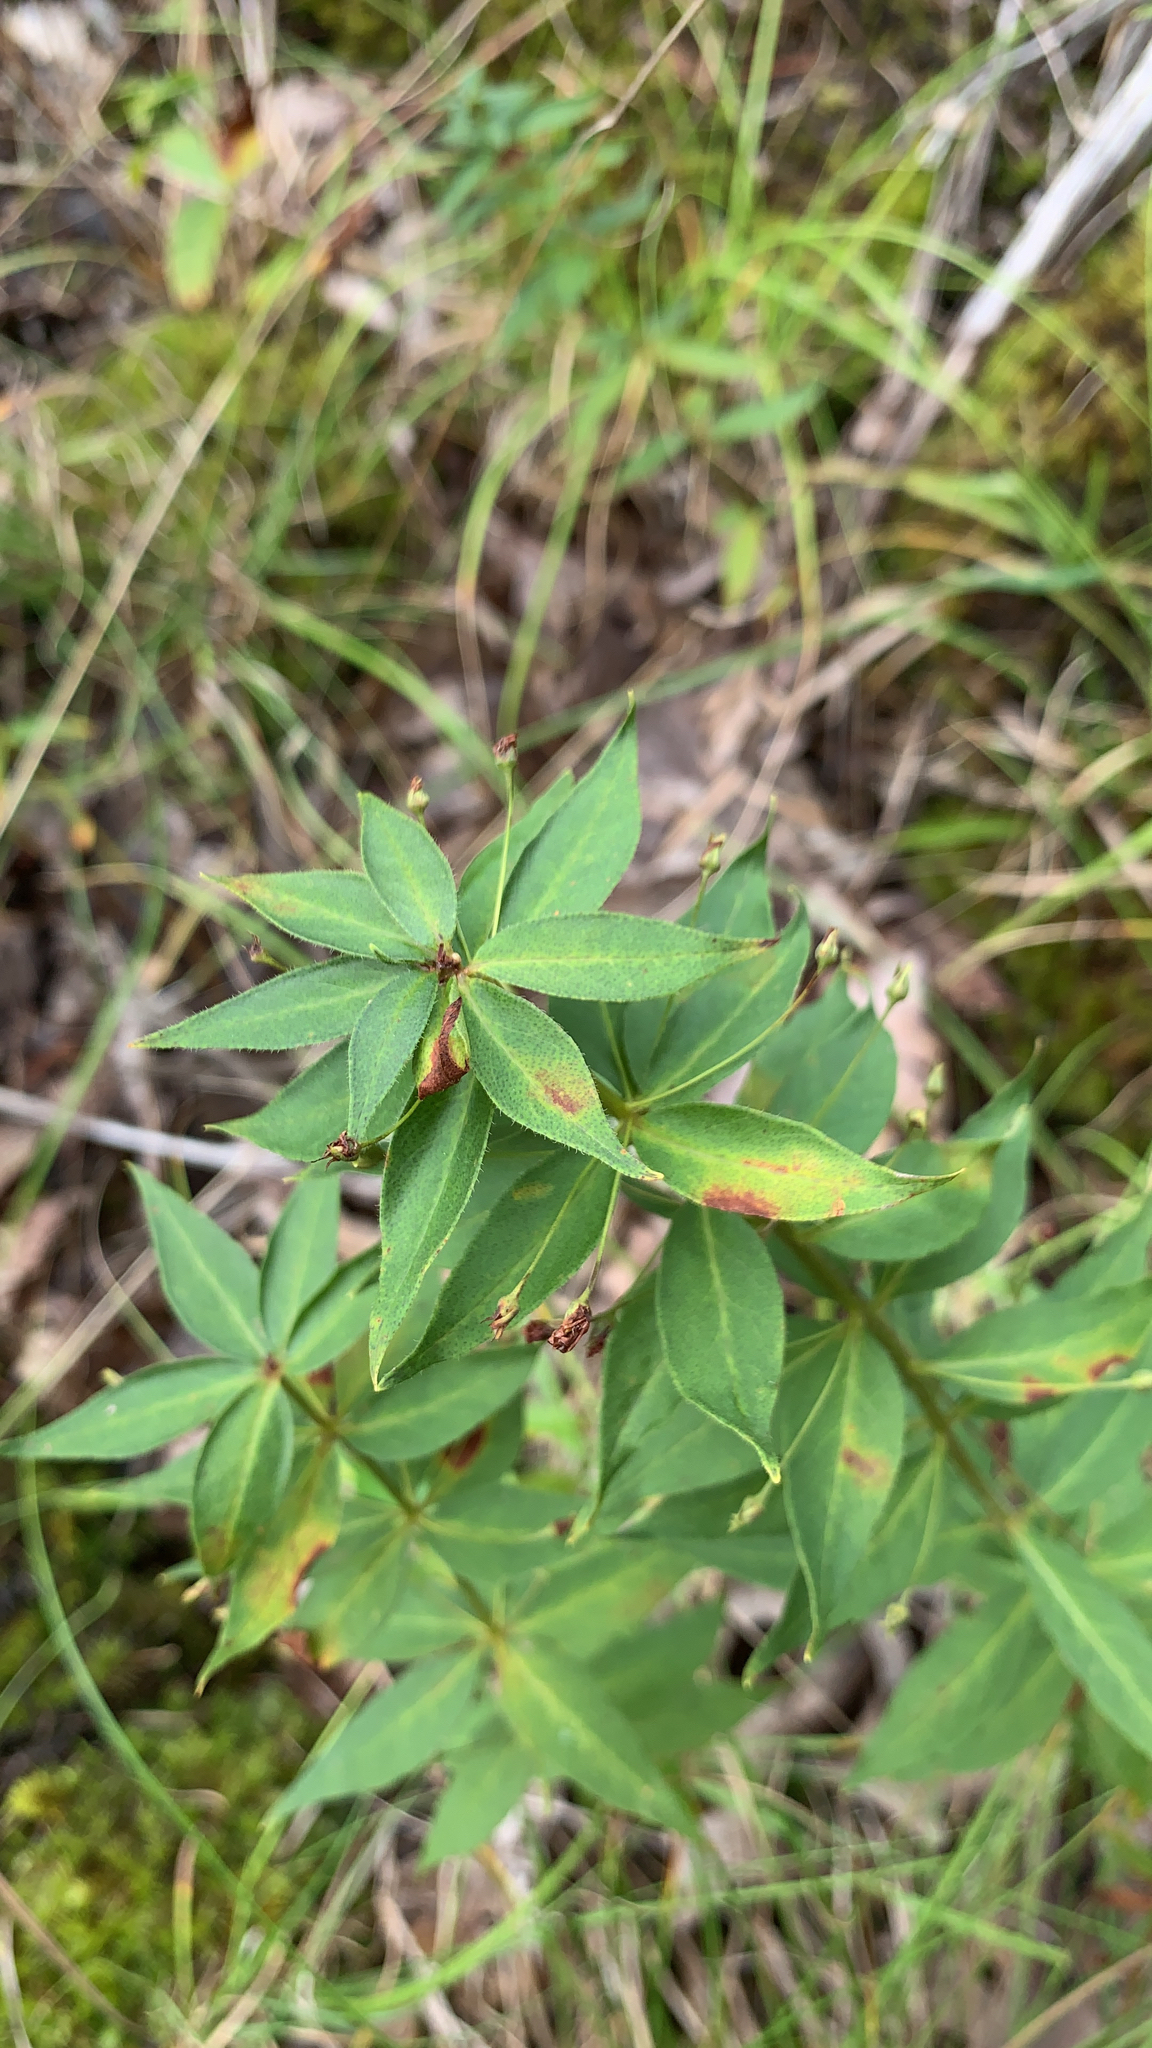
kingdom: Plantae
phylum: Tracheophyta
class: Magnoliopsida
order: Ericales
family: Primulaceae
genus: Lysimachia
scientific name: Lysimachia quadrifolia
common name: Whorled loosestrife
